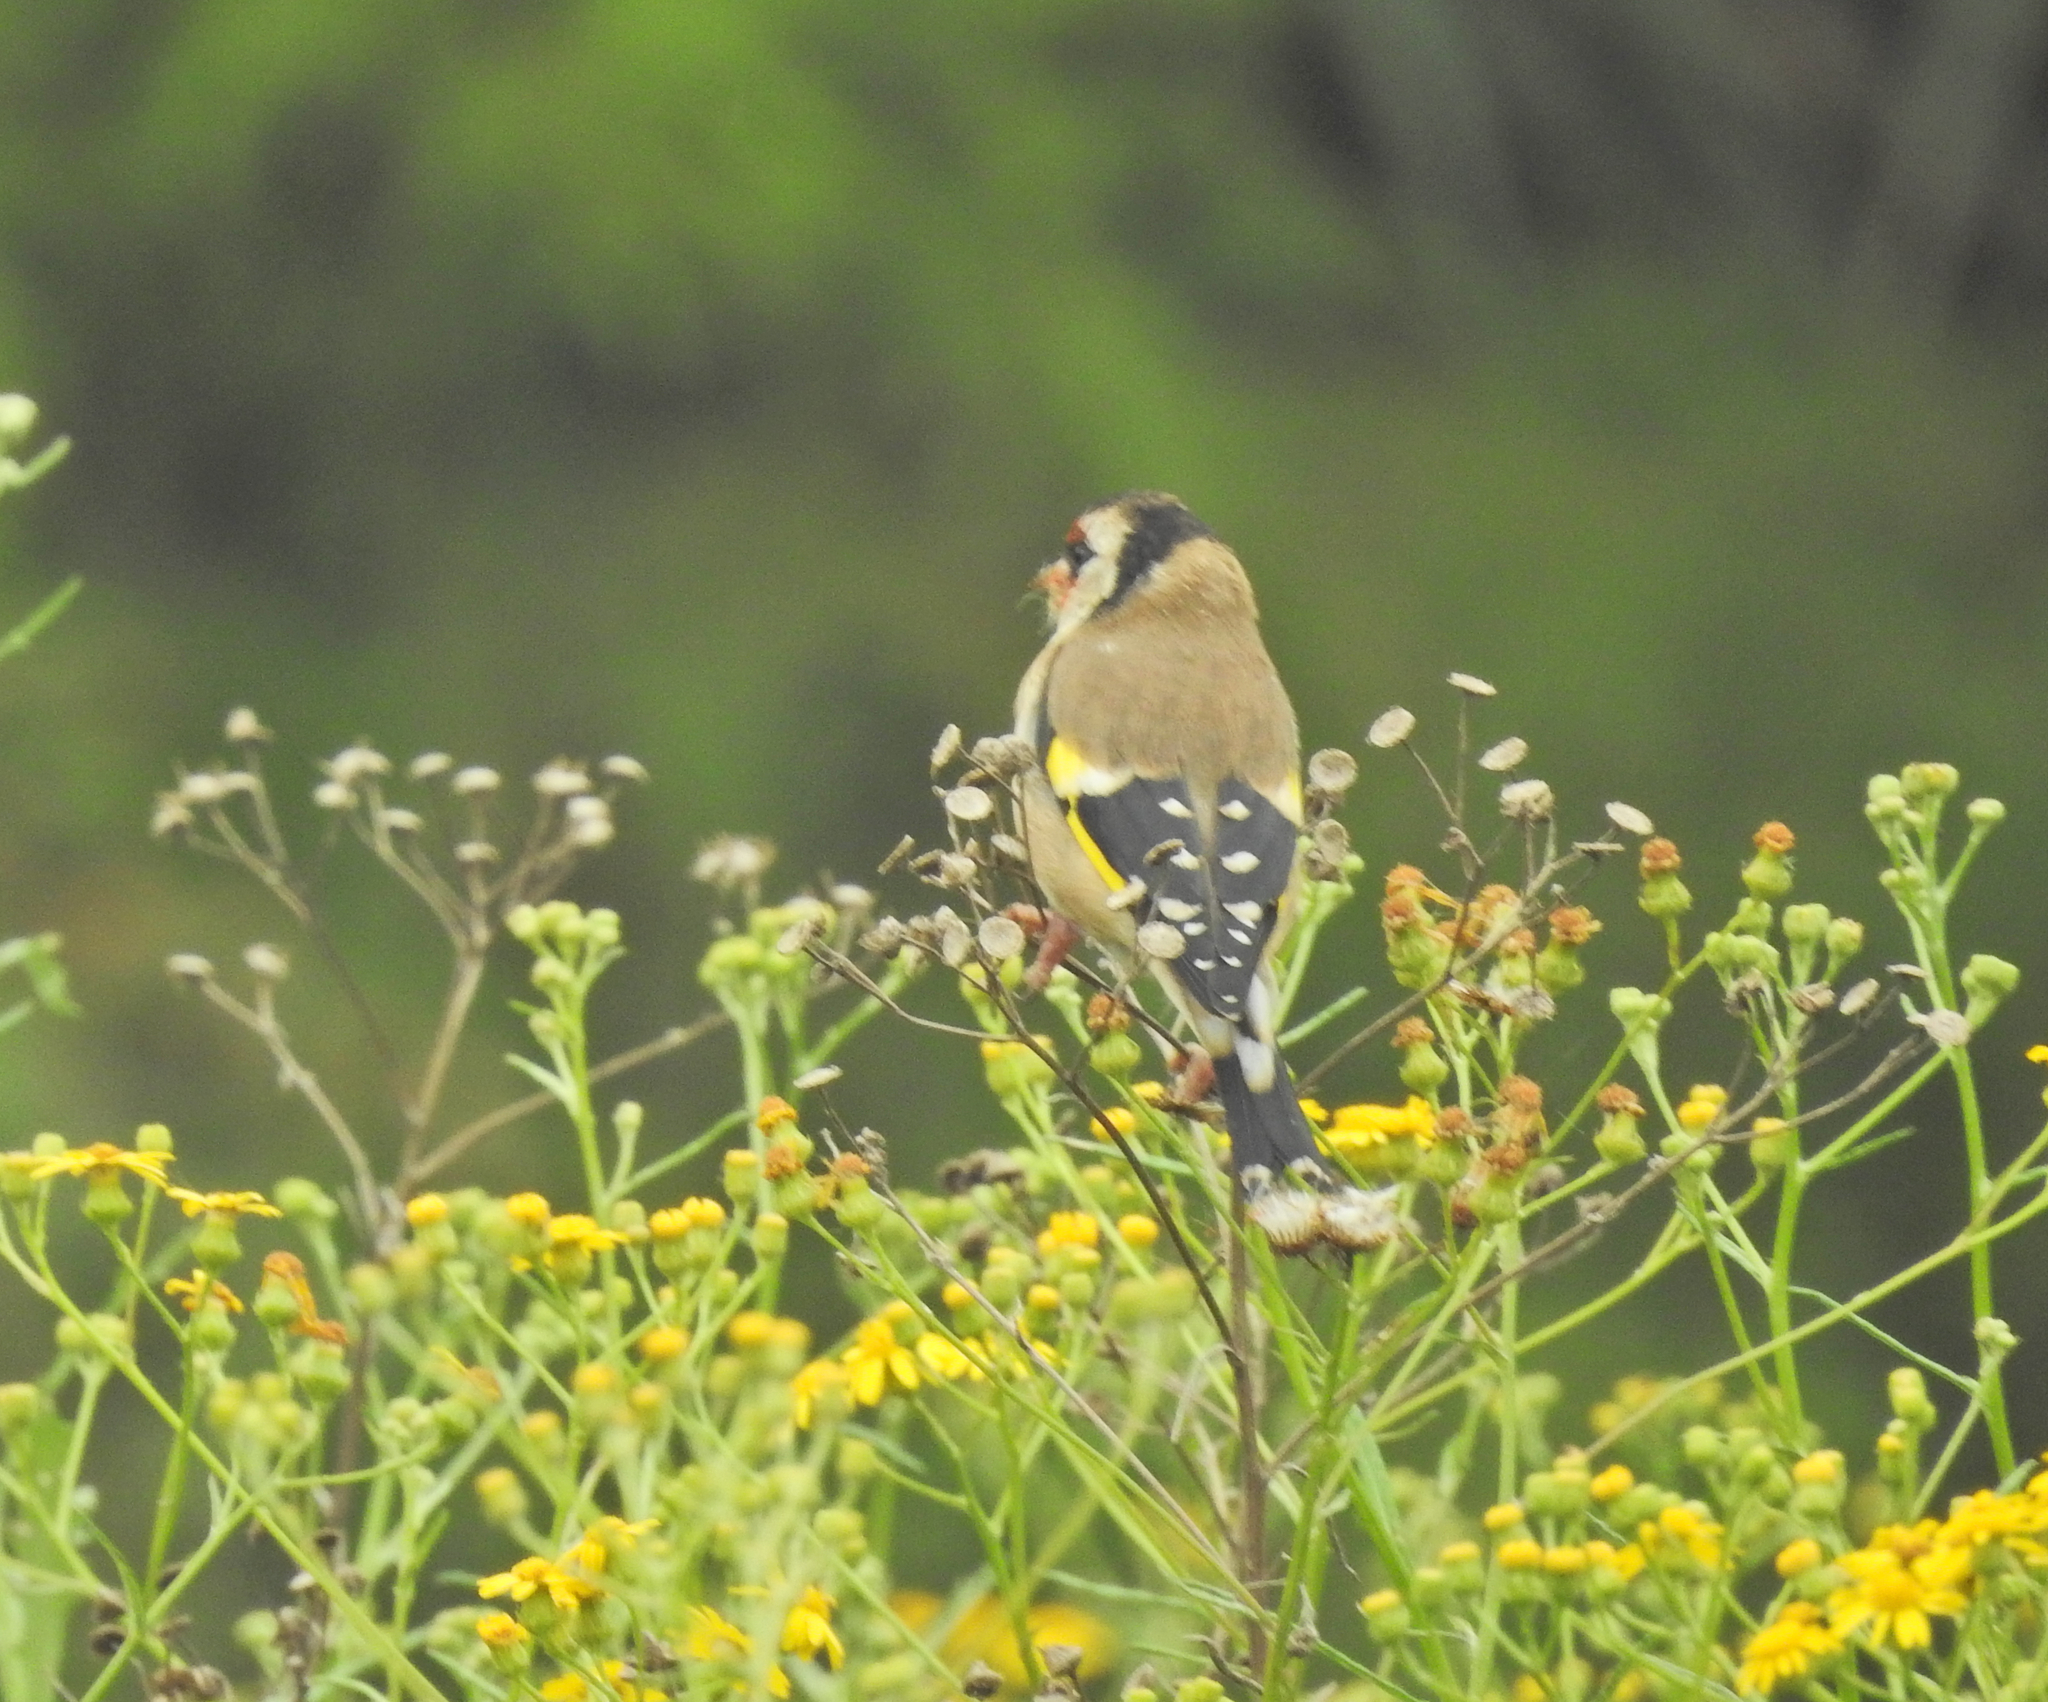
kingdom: Animalia
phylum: Chordata
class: Aves
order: Passeriformes
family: Fringillidae
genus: Carduelis
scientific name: Carduelis carduelis
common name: European goldfinch
